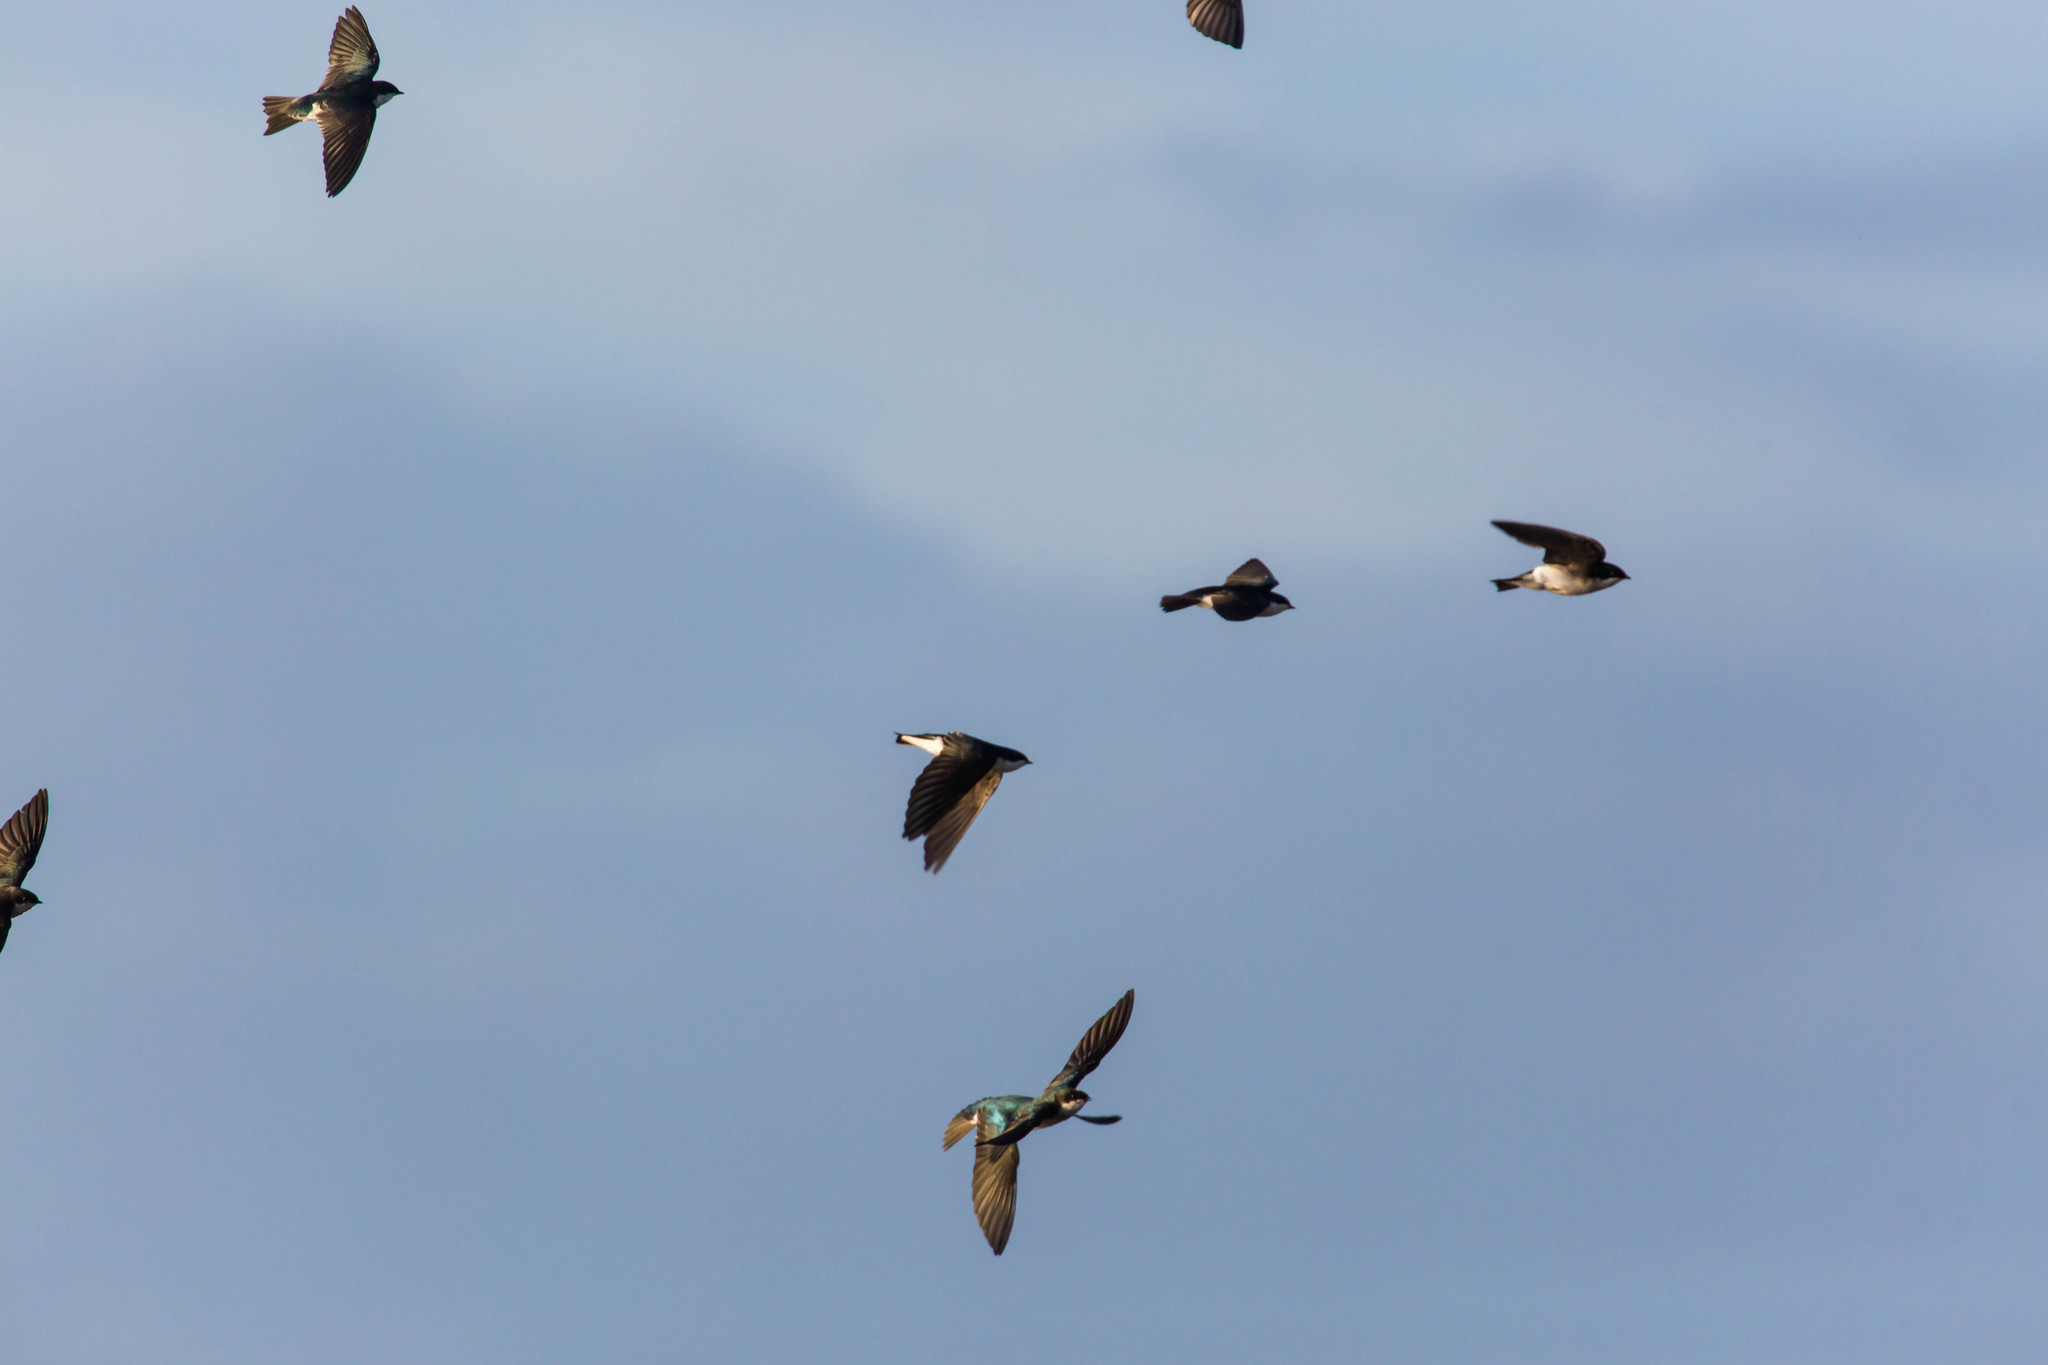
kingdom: Animalia
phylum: Chordata
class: Aves
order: Passeriformes
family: Hirundinidae
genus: Tachycineta
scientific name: Tachycineta bicolor
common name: Tree swallow
